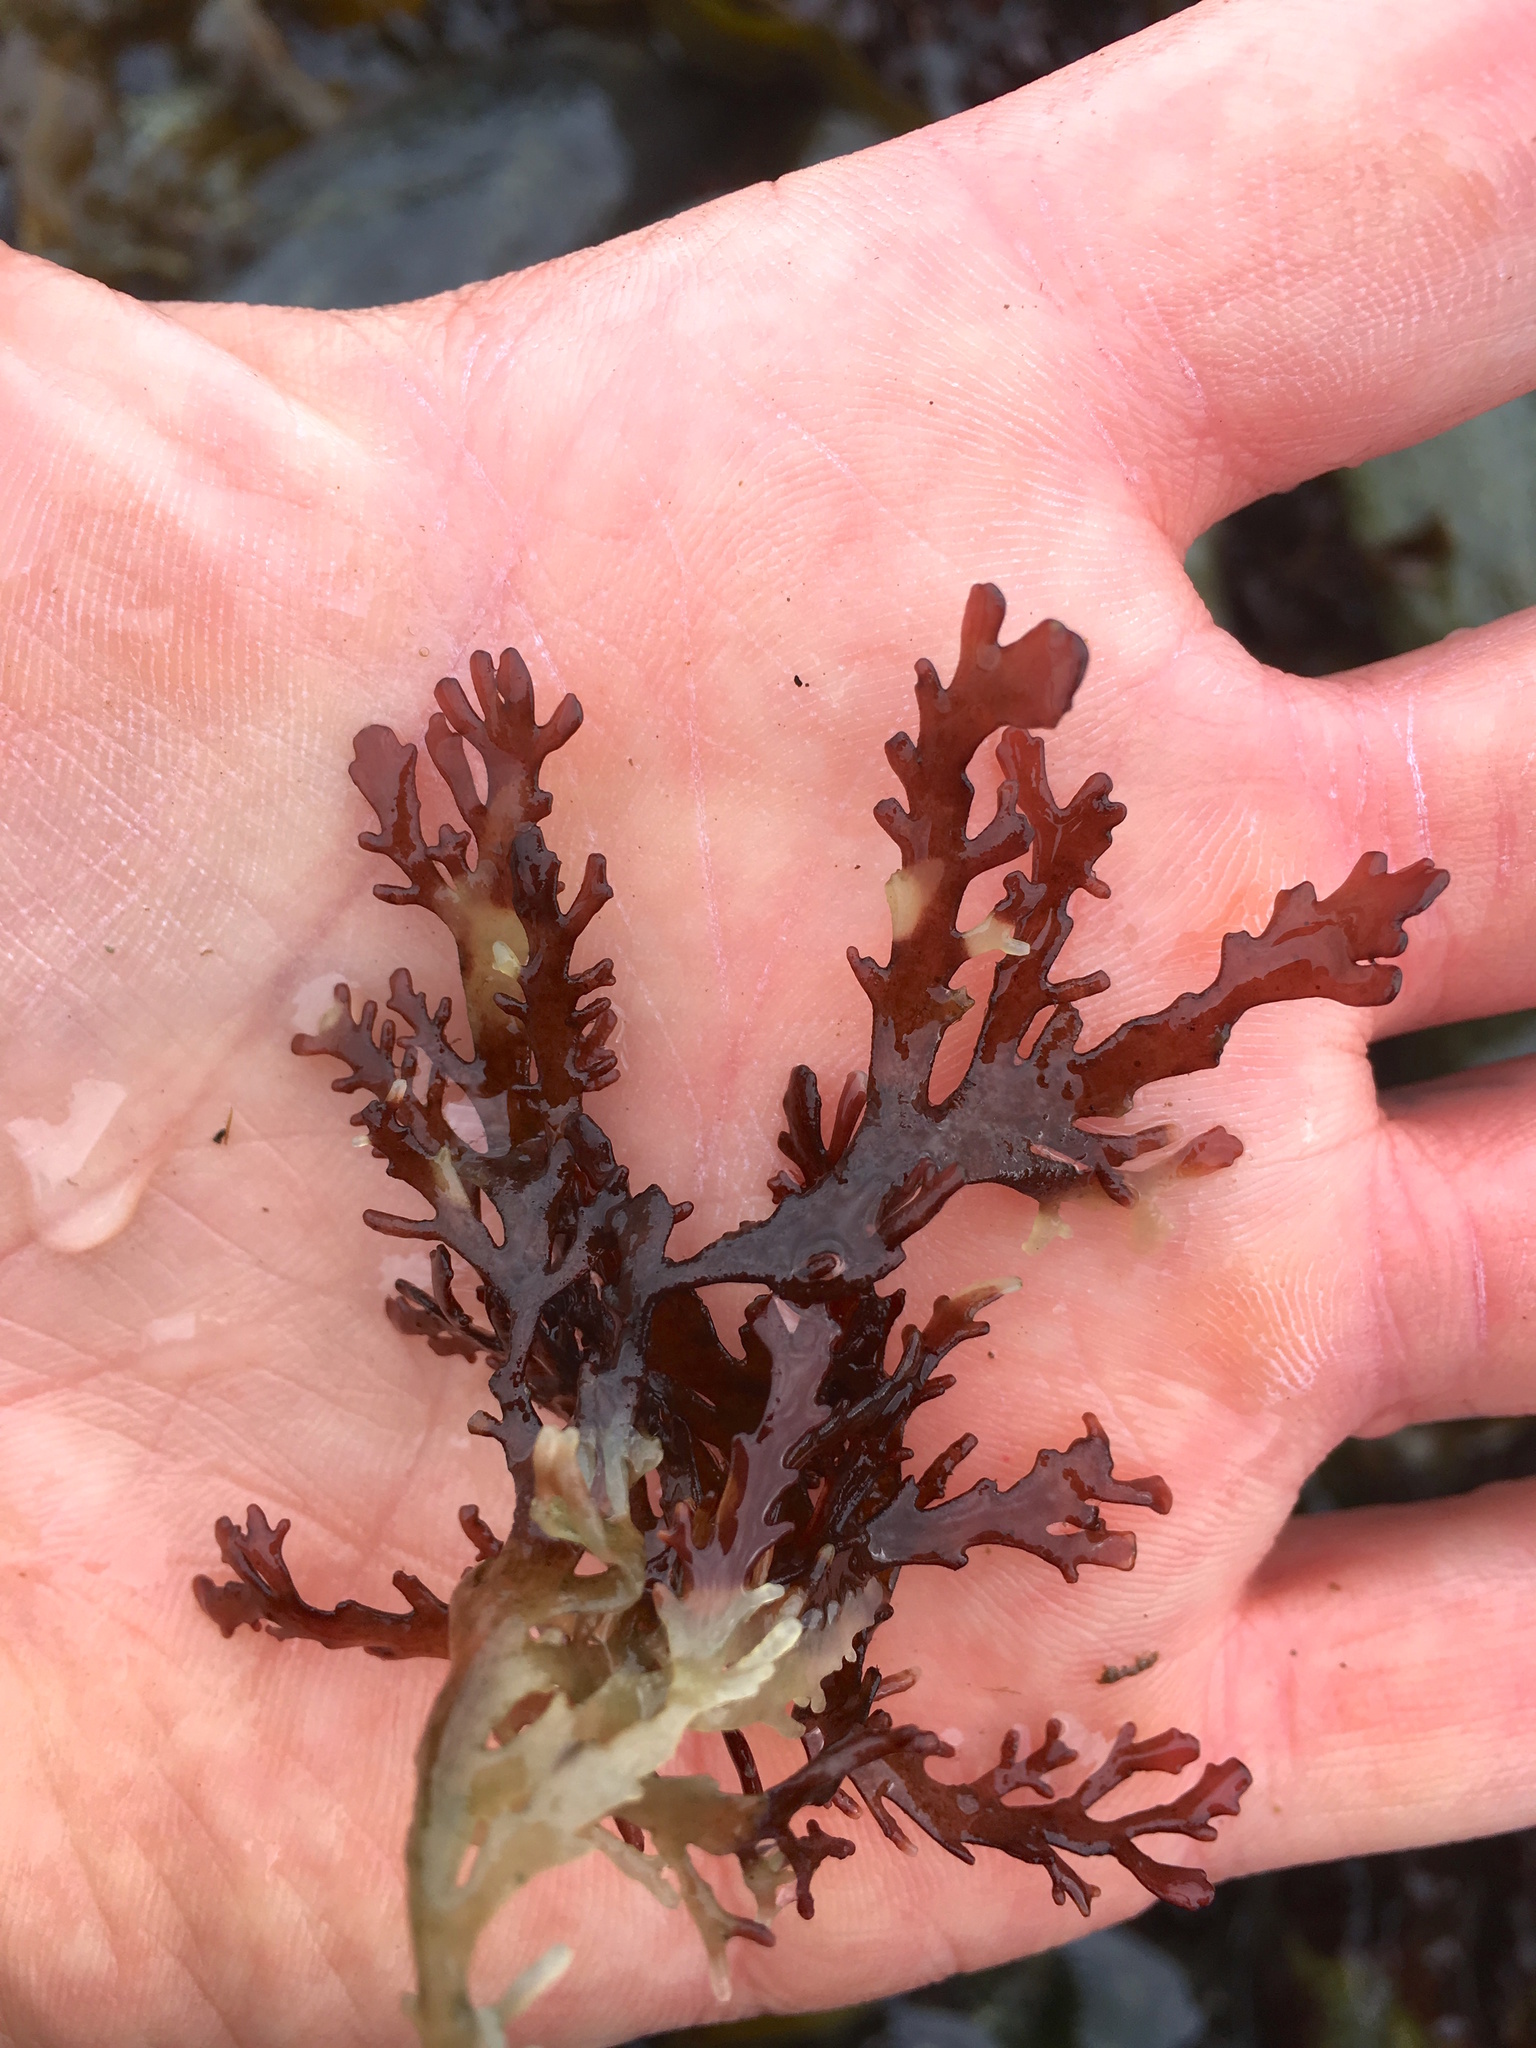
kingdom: Plantae
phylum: Rhodophyta
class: Florideophyceae
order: Ceramiales
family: Rhodomelaceae
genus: Osmundea
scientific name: Osmundea spectabilis
